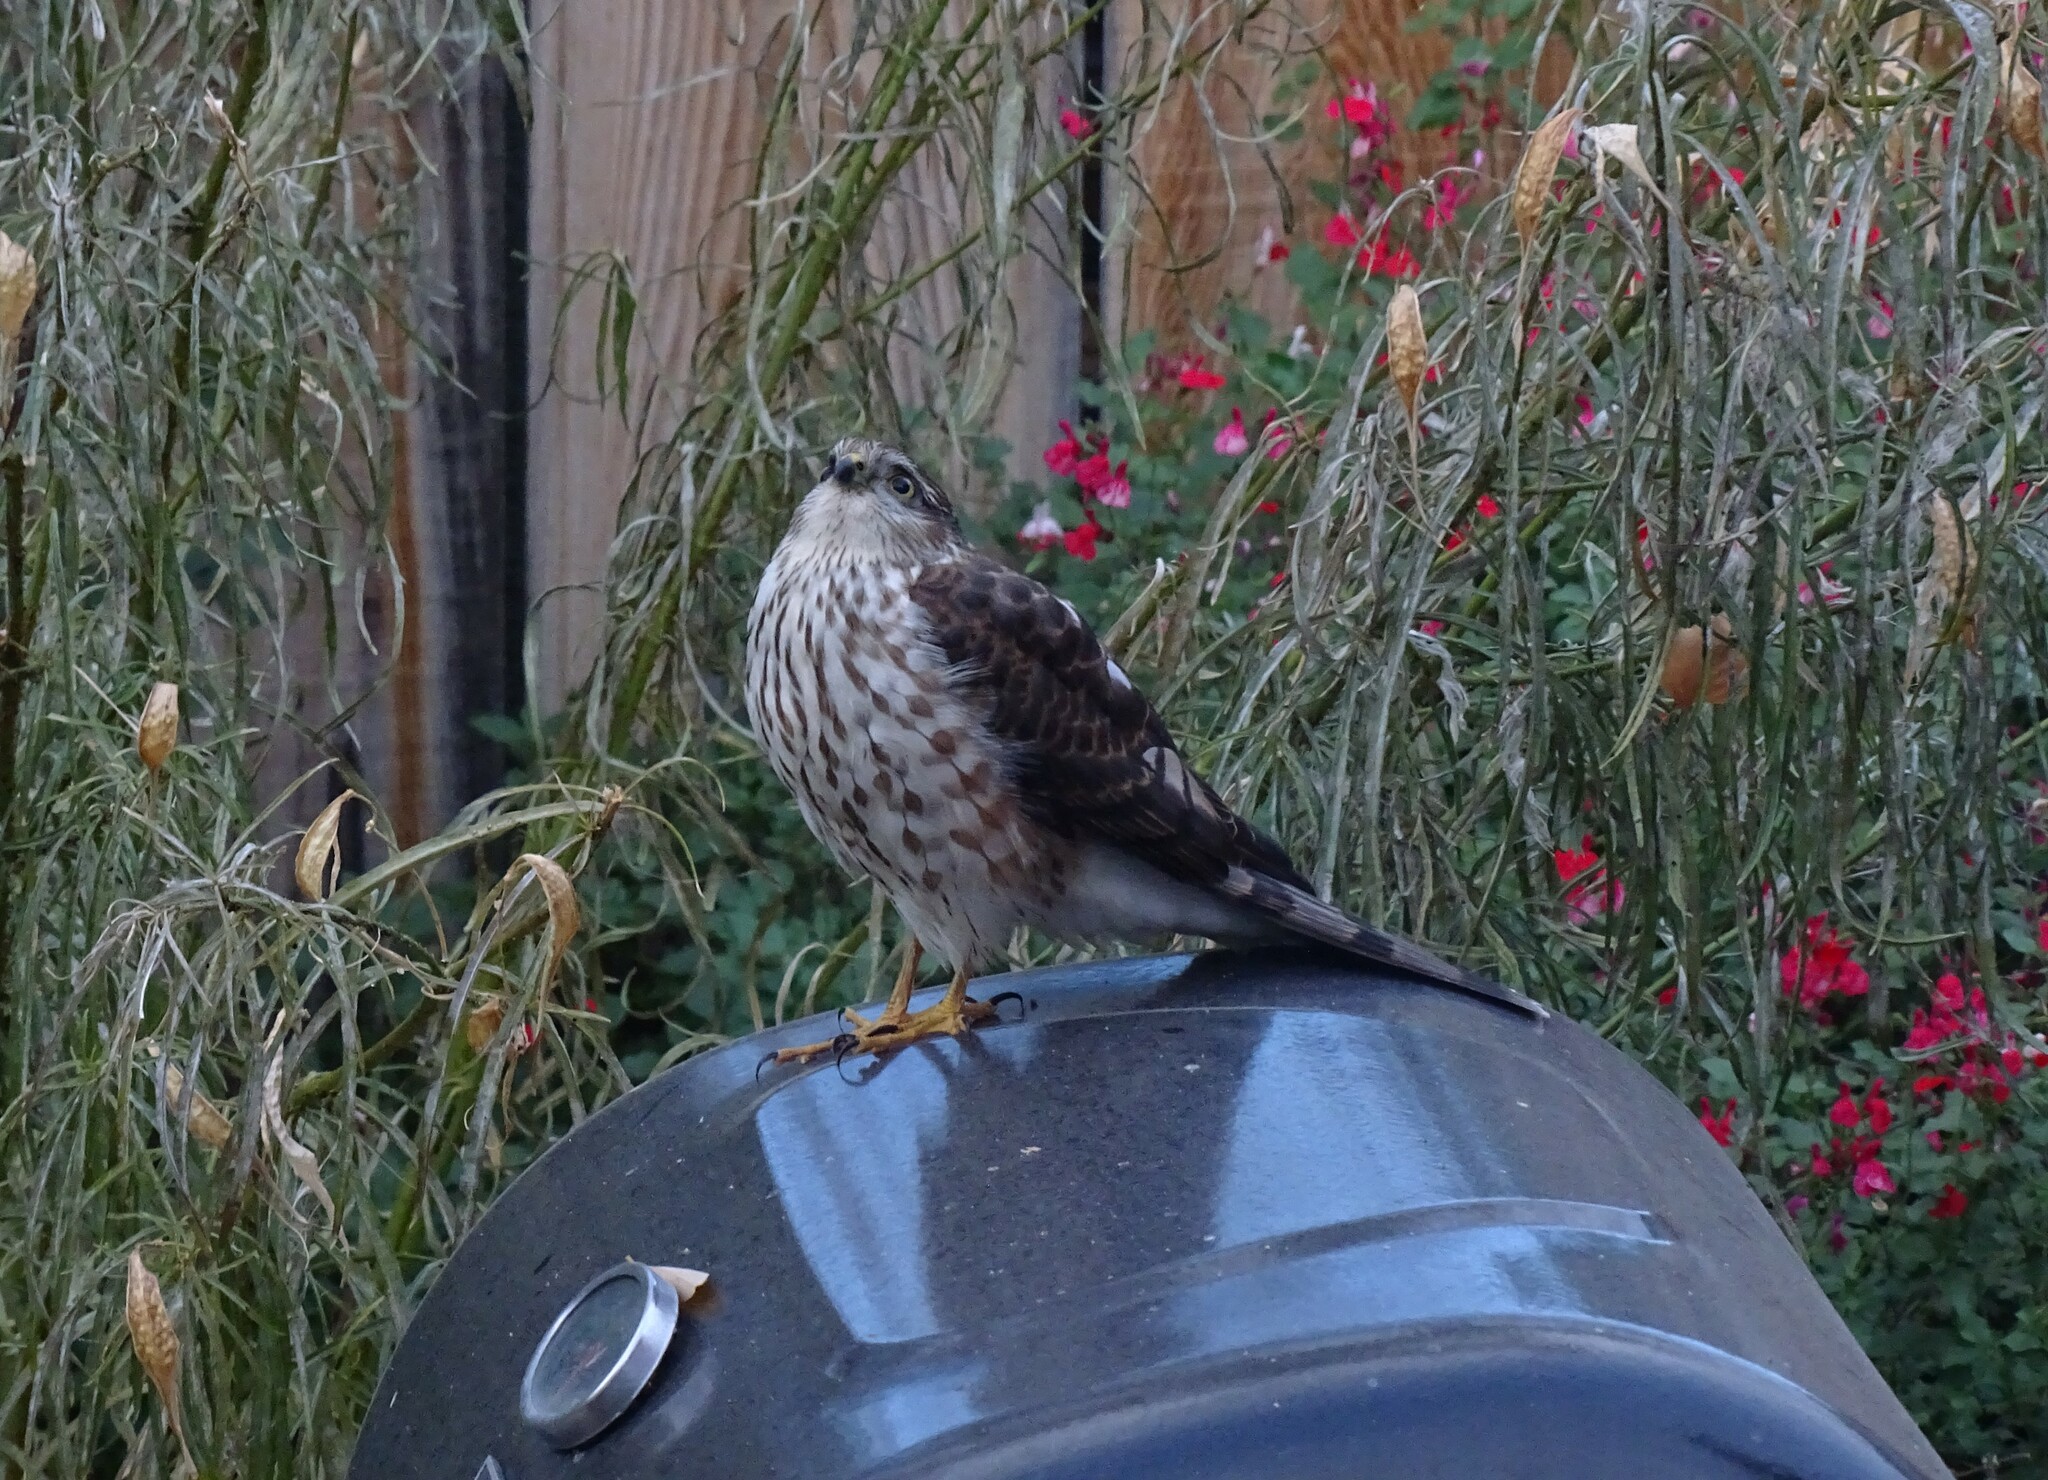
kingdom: Animalia
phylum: Chordata
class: Aves
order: Accipitriformes
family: Accipitridae
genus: Accipiter
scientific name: Accipiter striatus
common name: Sharp-shinned hawk
